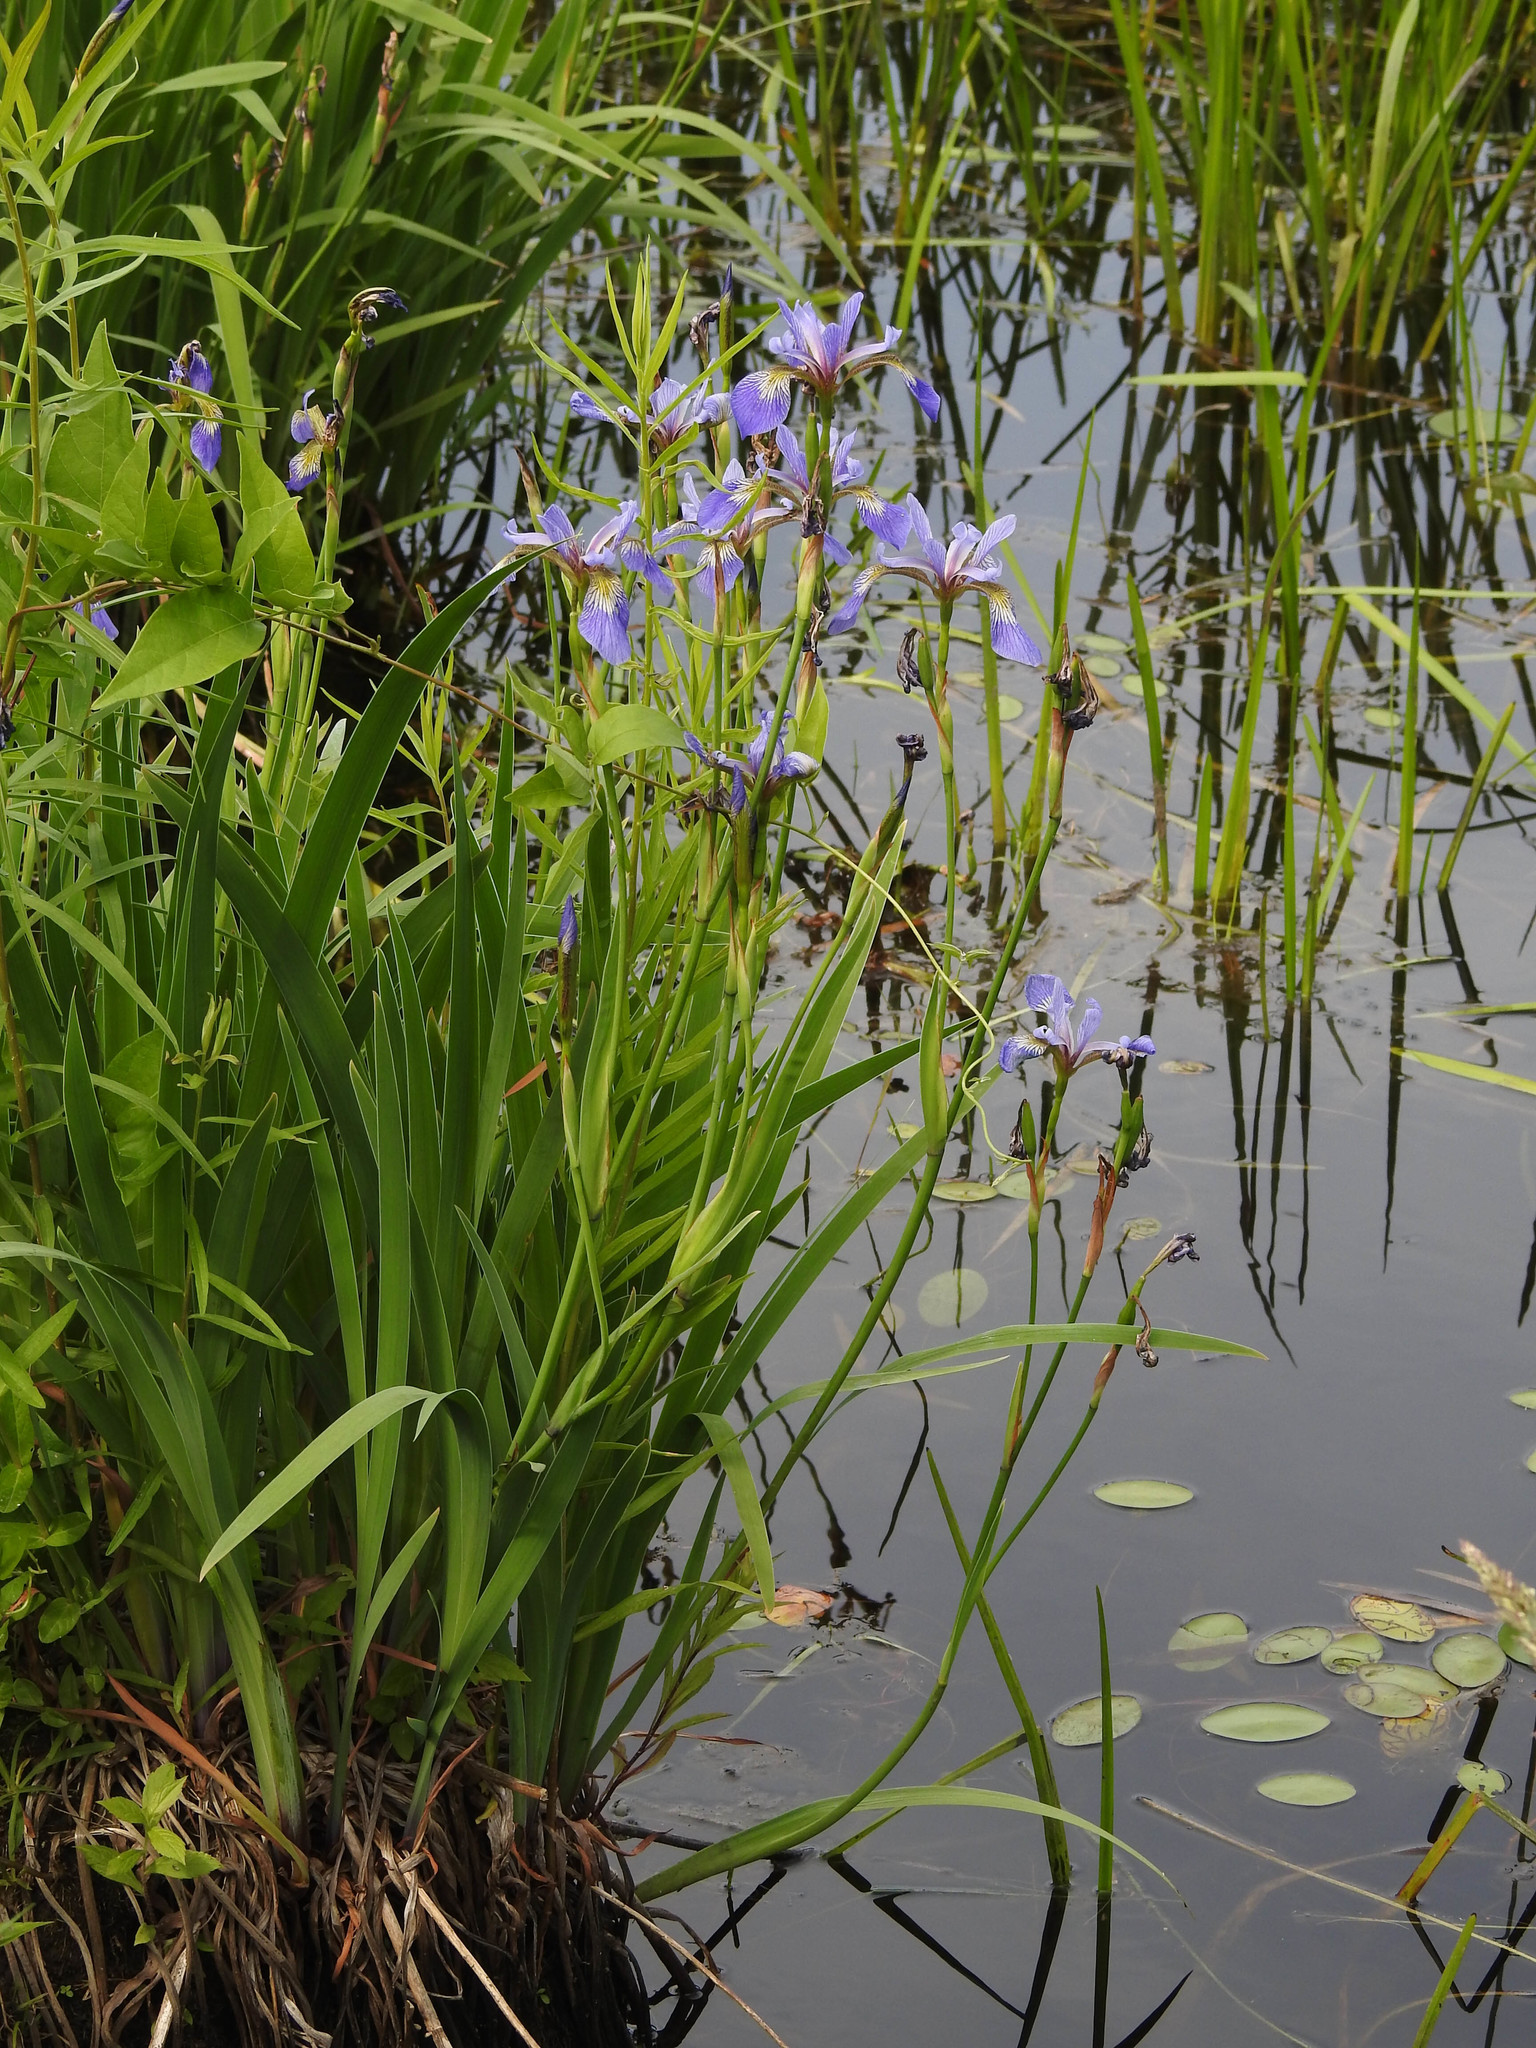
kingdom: Plantae
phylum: Tracheophyta
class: Liliopsida
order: Asparagales
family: Iridaceae
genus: Iris
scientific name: Iris versicolor
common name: Purple iris
